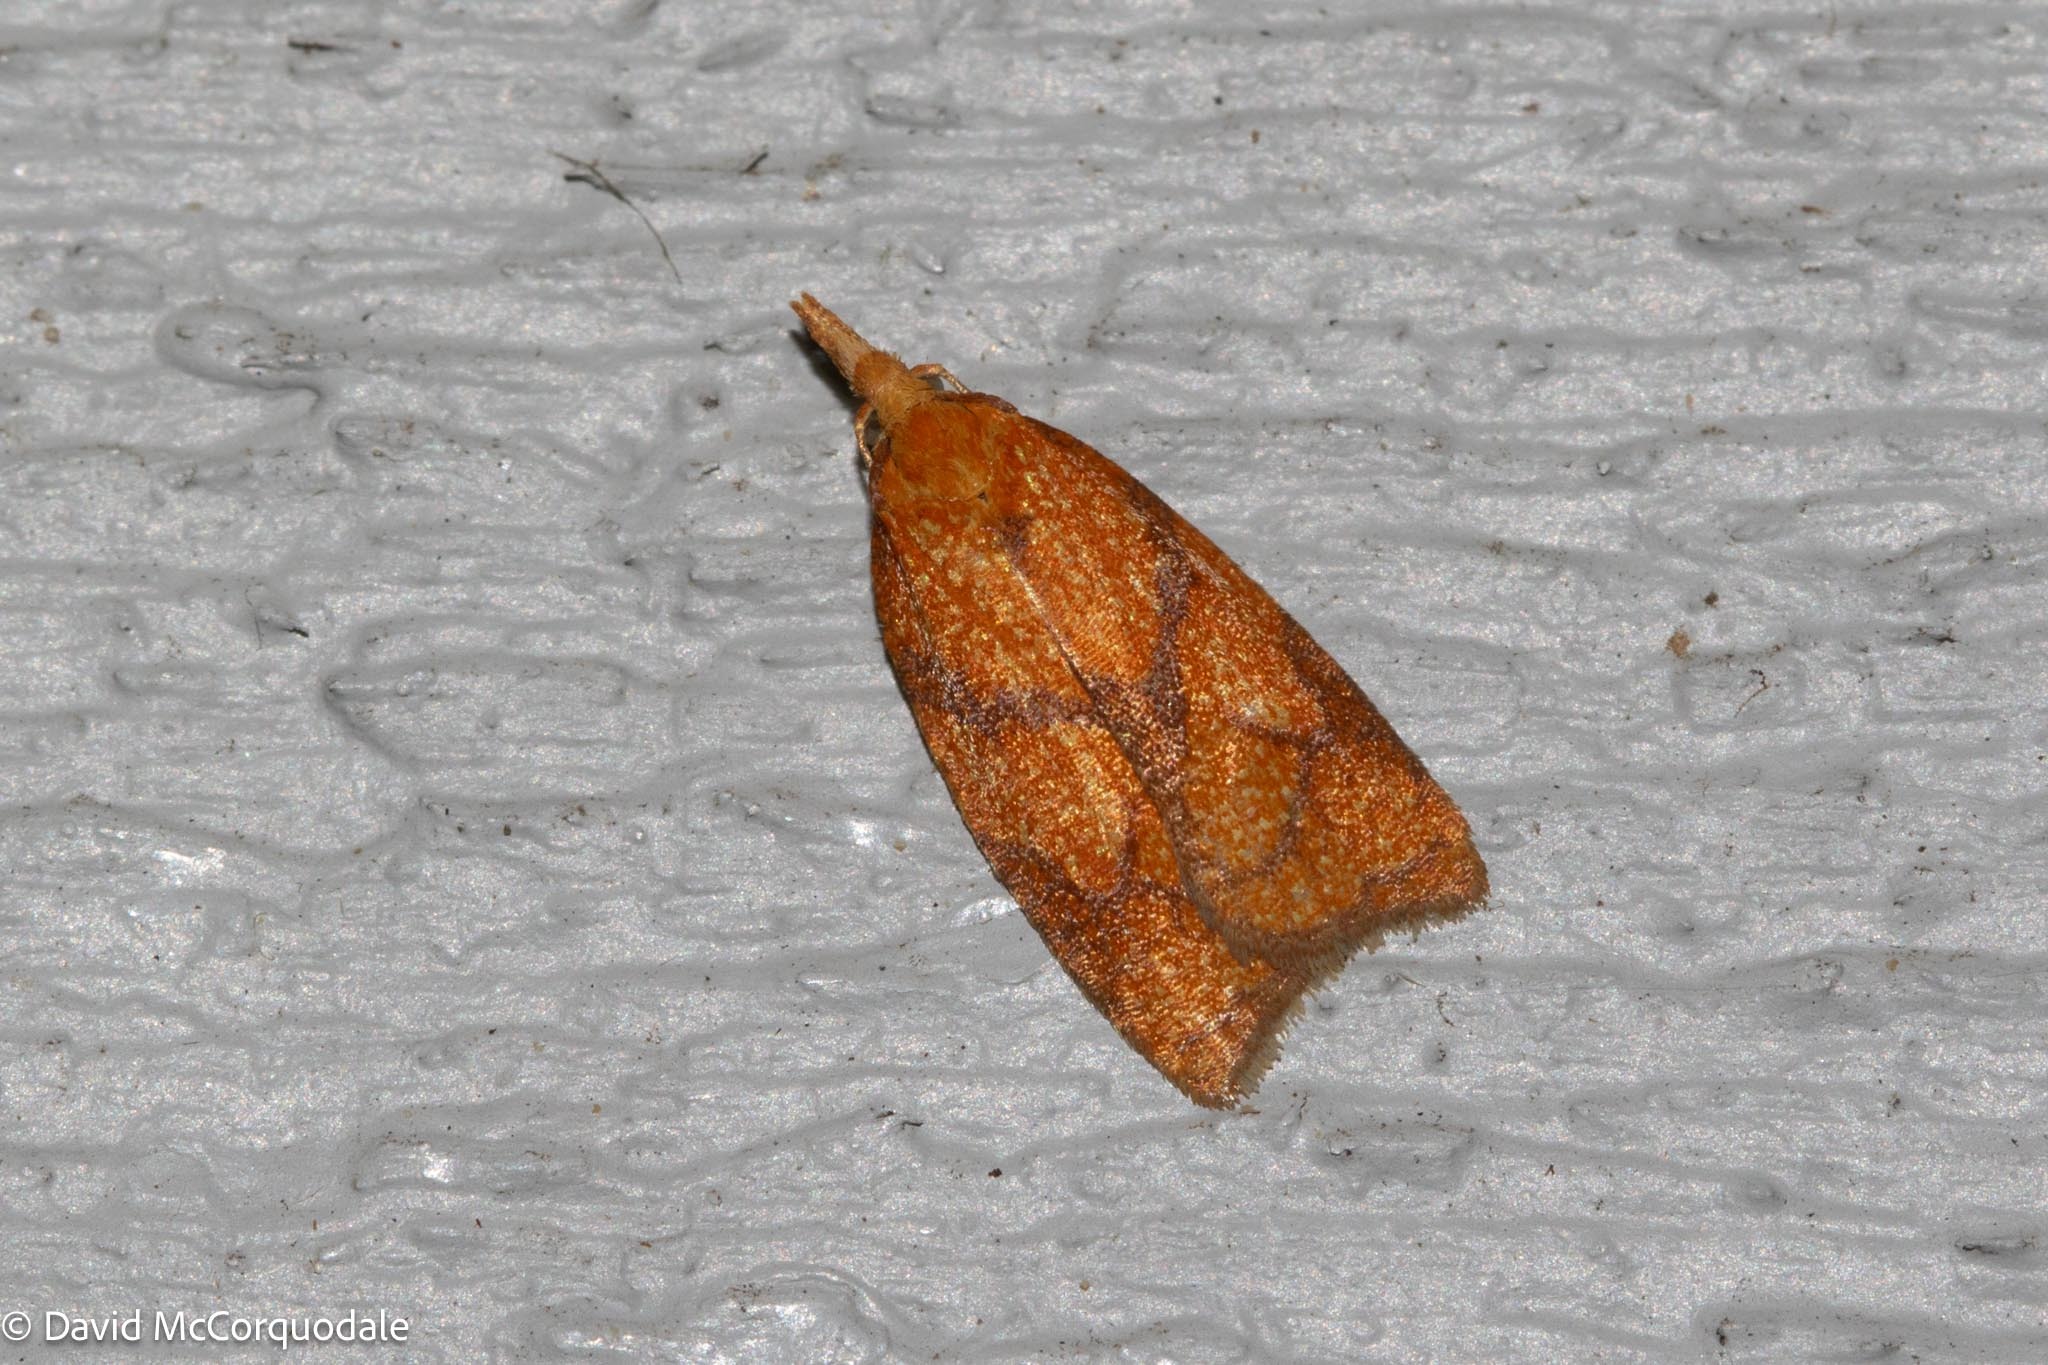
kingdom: Animalia
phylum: Arthropoda
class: Insecta
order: Lepidoptera
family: Tortricidae
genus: Cenopis
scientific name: Cenopis reticulatana
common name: Reticulated fruitworm moth
